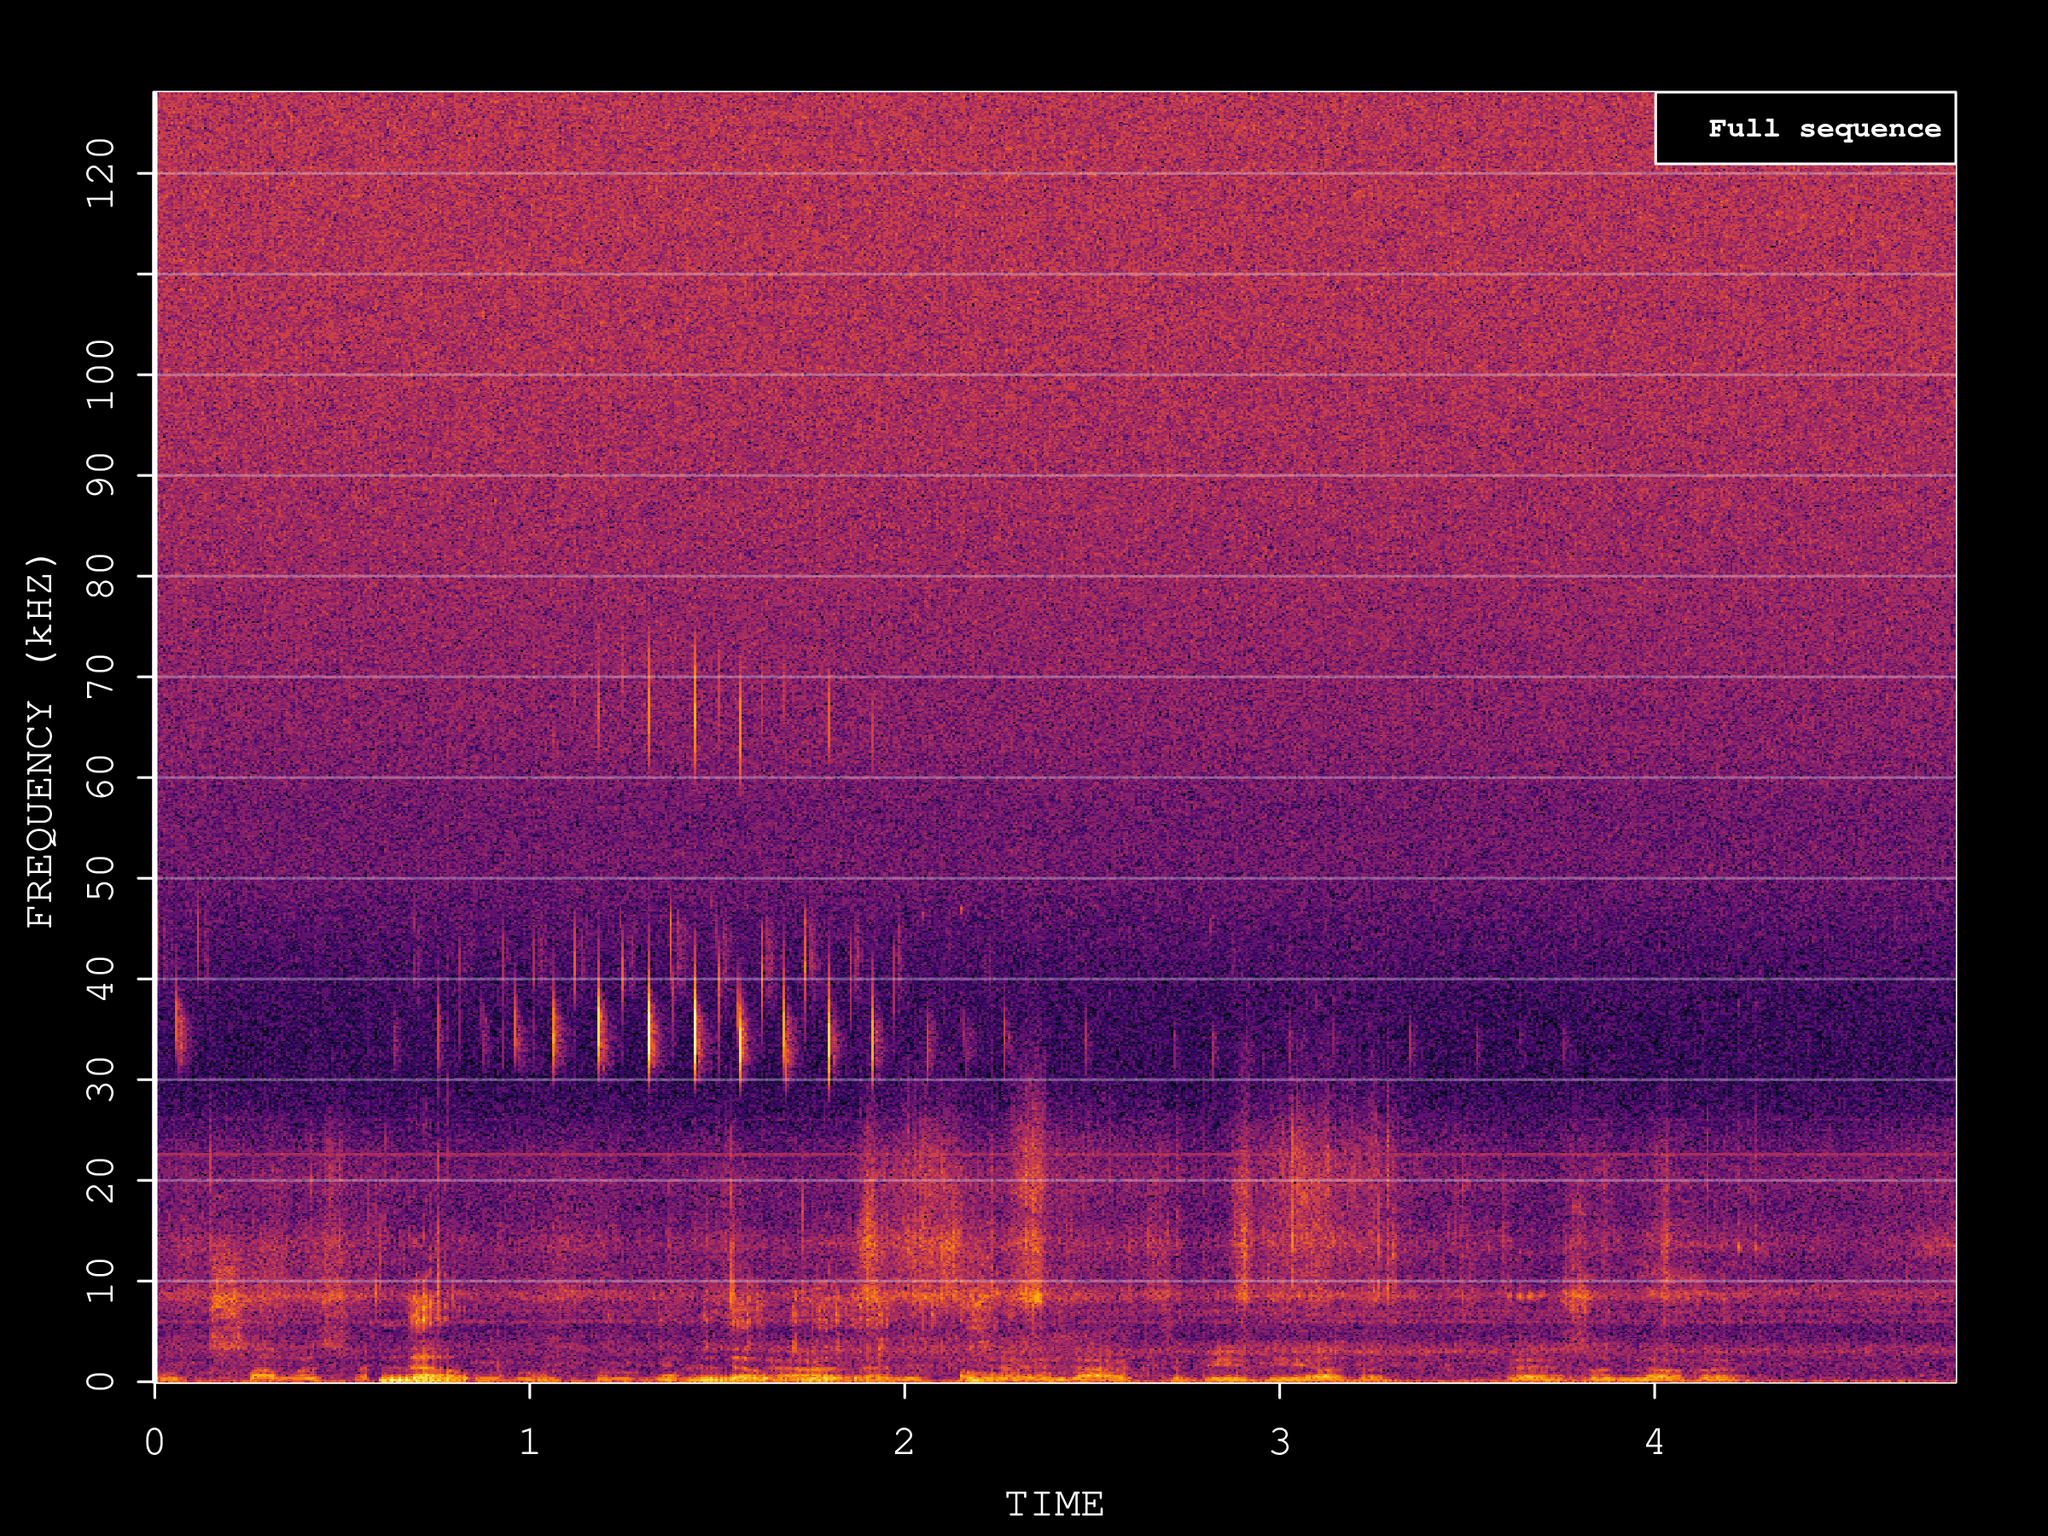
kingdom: Animalia
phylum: Chordata
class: Mammalia
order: Chiroptera
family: Vespertilionidae
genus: Barbastella
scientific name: Barbastella barbastellus
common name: Western barbastelle
